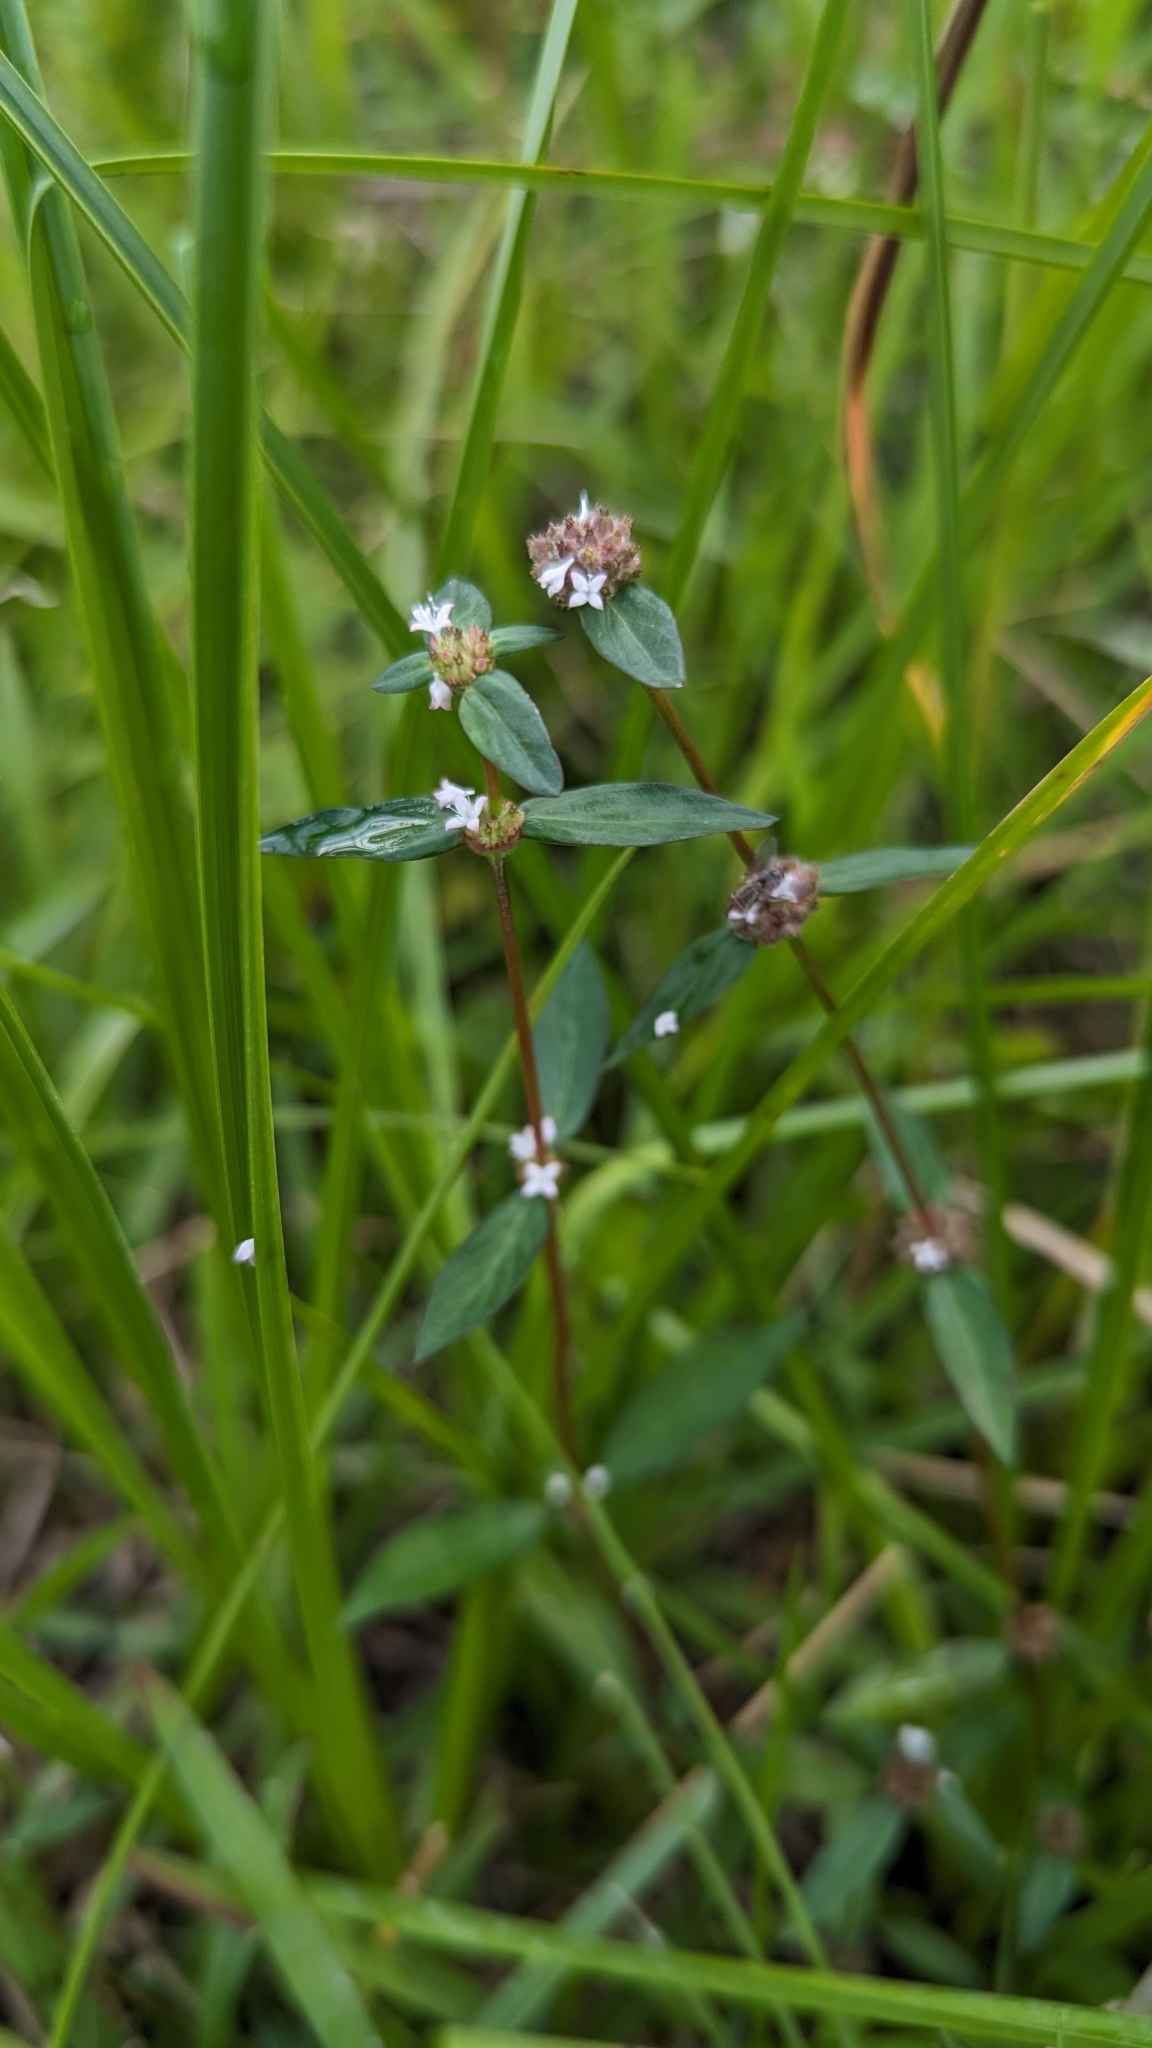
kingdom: Plantae
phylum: Tracheophyta
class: Magnoliopsida
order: Gentianales
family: Rubiaceae
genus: Spermacoce
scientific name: Spermacoce remota
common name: Woodland false buttonweed
